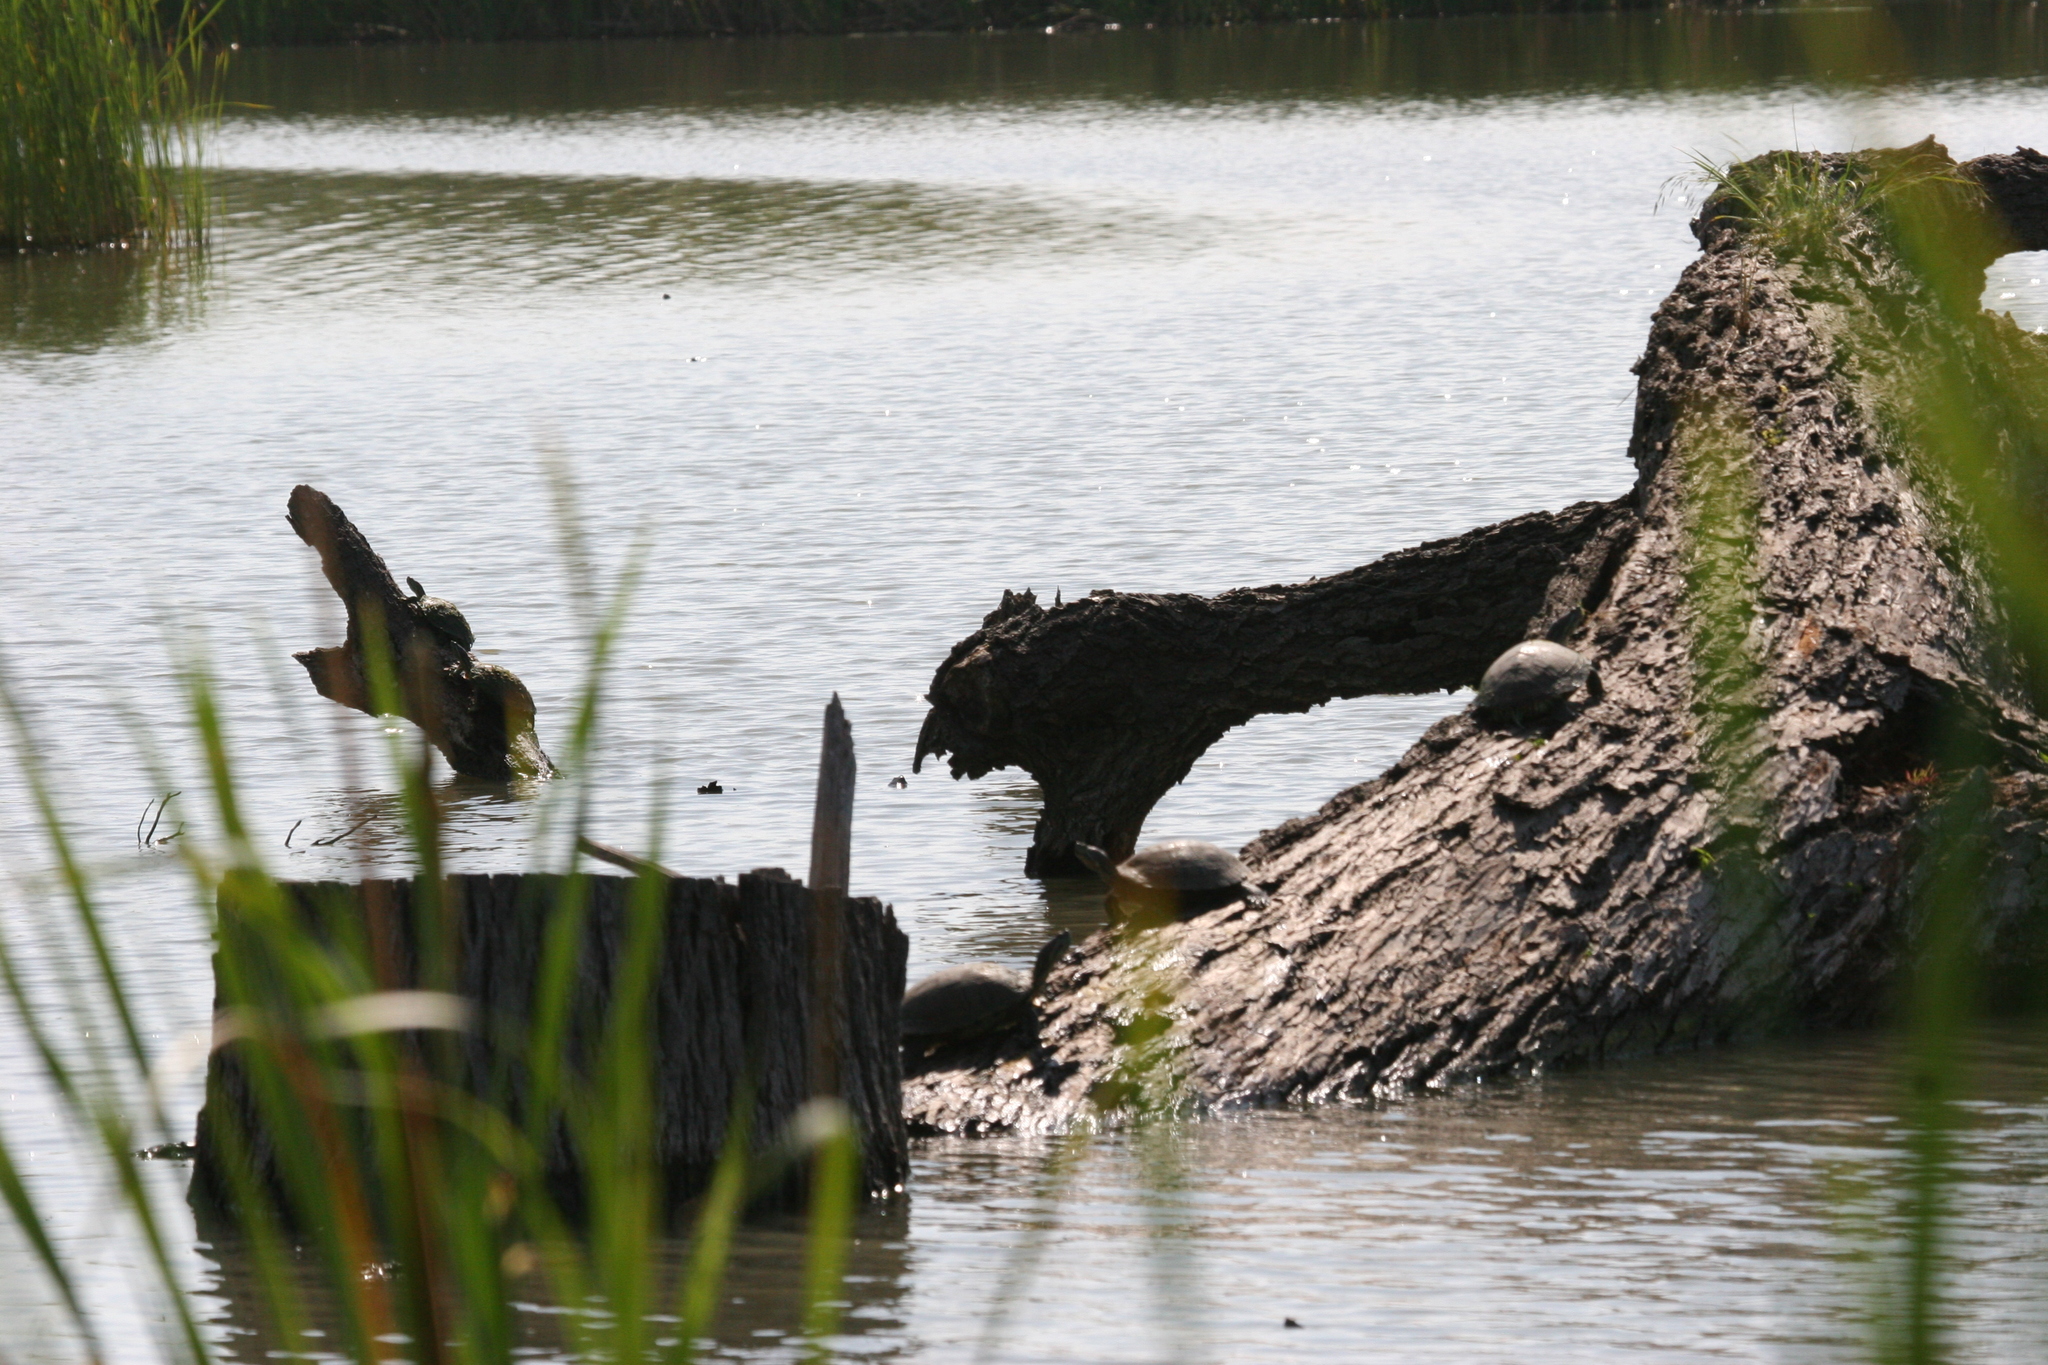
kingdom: Animalia
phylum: Chordata
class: Testudines
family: Emydidae
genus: Trachemys
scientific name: Trachemys scripta
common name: Slider
